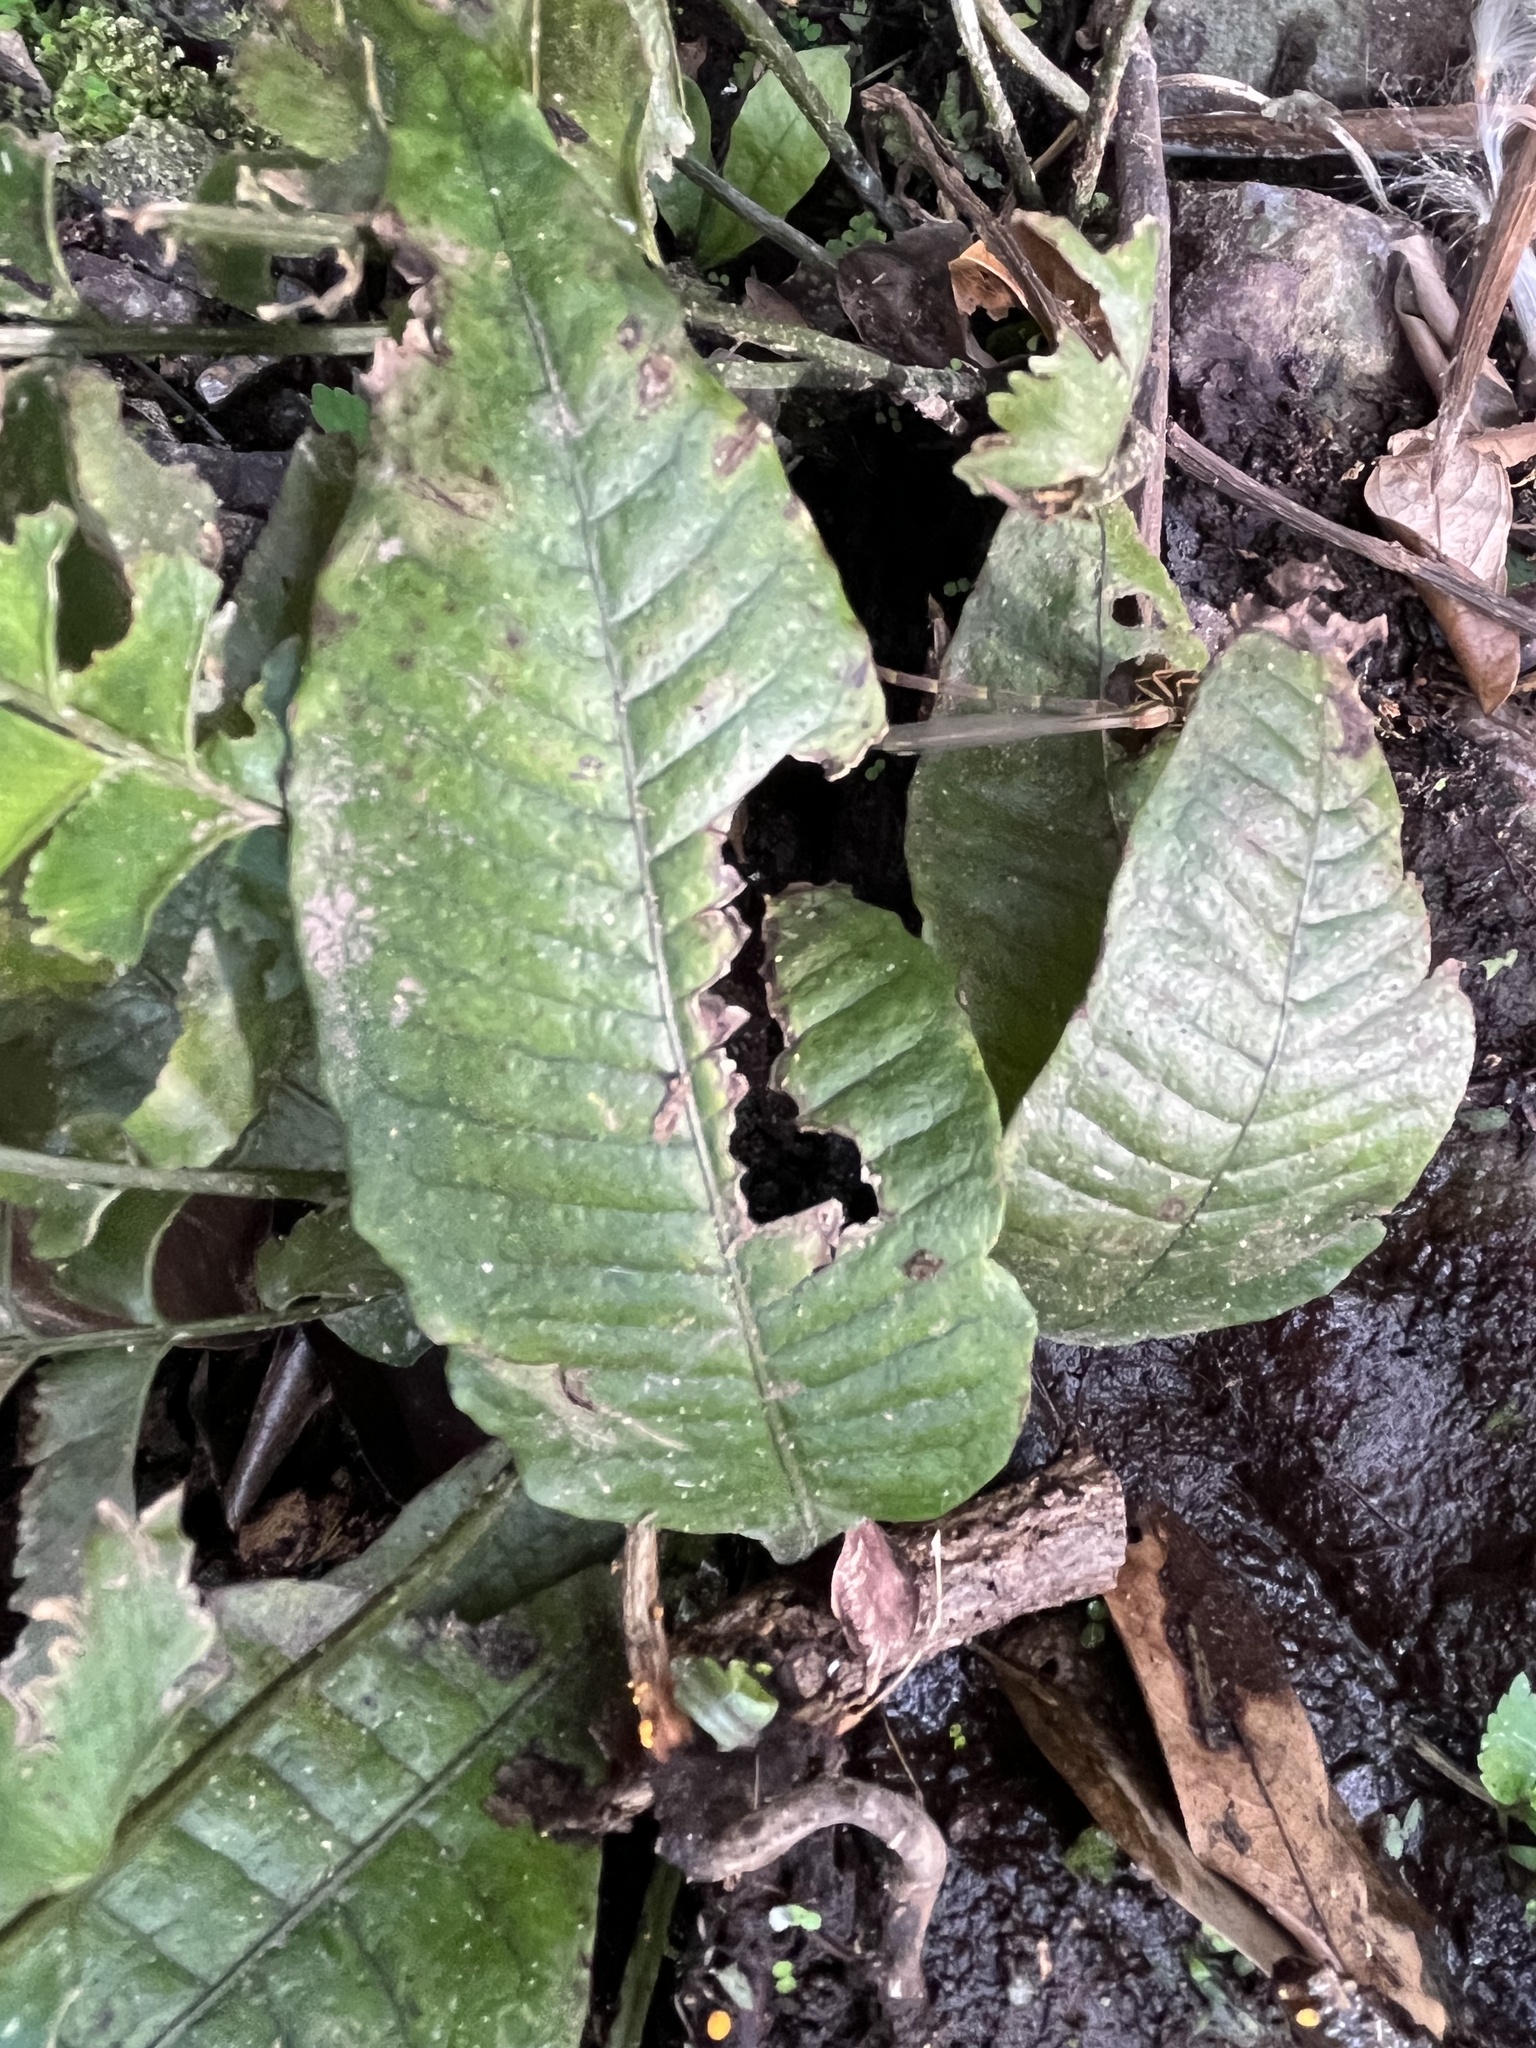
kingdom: Plantae
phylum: Tracheophyta
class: Polypodiopsida
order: Polypodiales
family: Polypodiaceae
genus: Leptochilus
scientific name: Leptochilus decurrens
